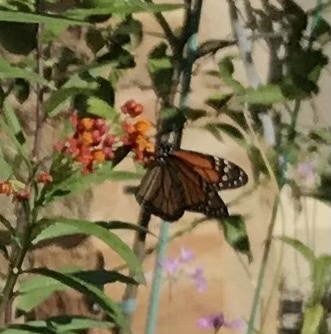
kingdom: Animalia
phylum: Arthropoda
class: Insecta
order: Lepidoptera
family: Nymphalidae
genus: Danaus
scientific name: Danaus plexippus
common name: Monarch
